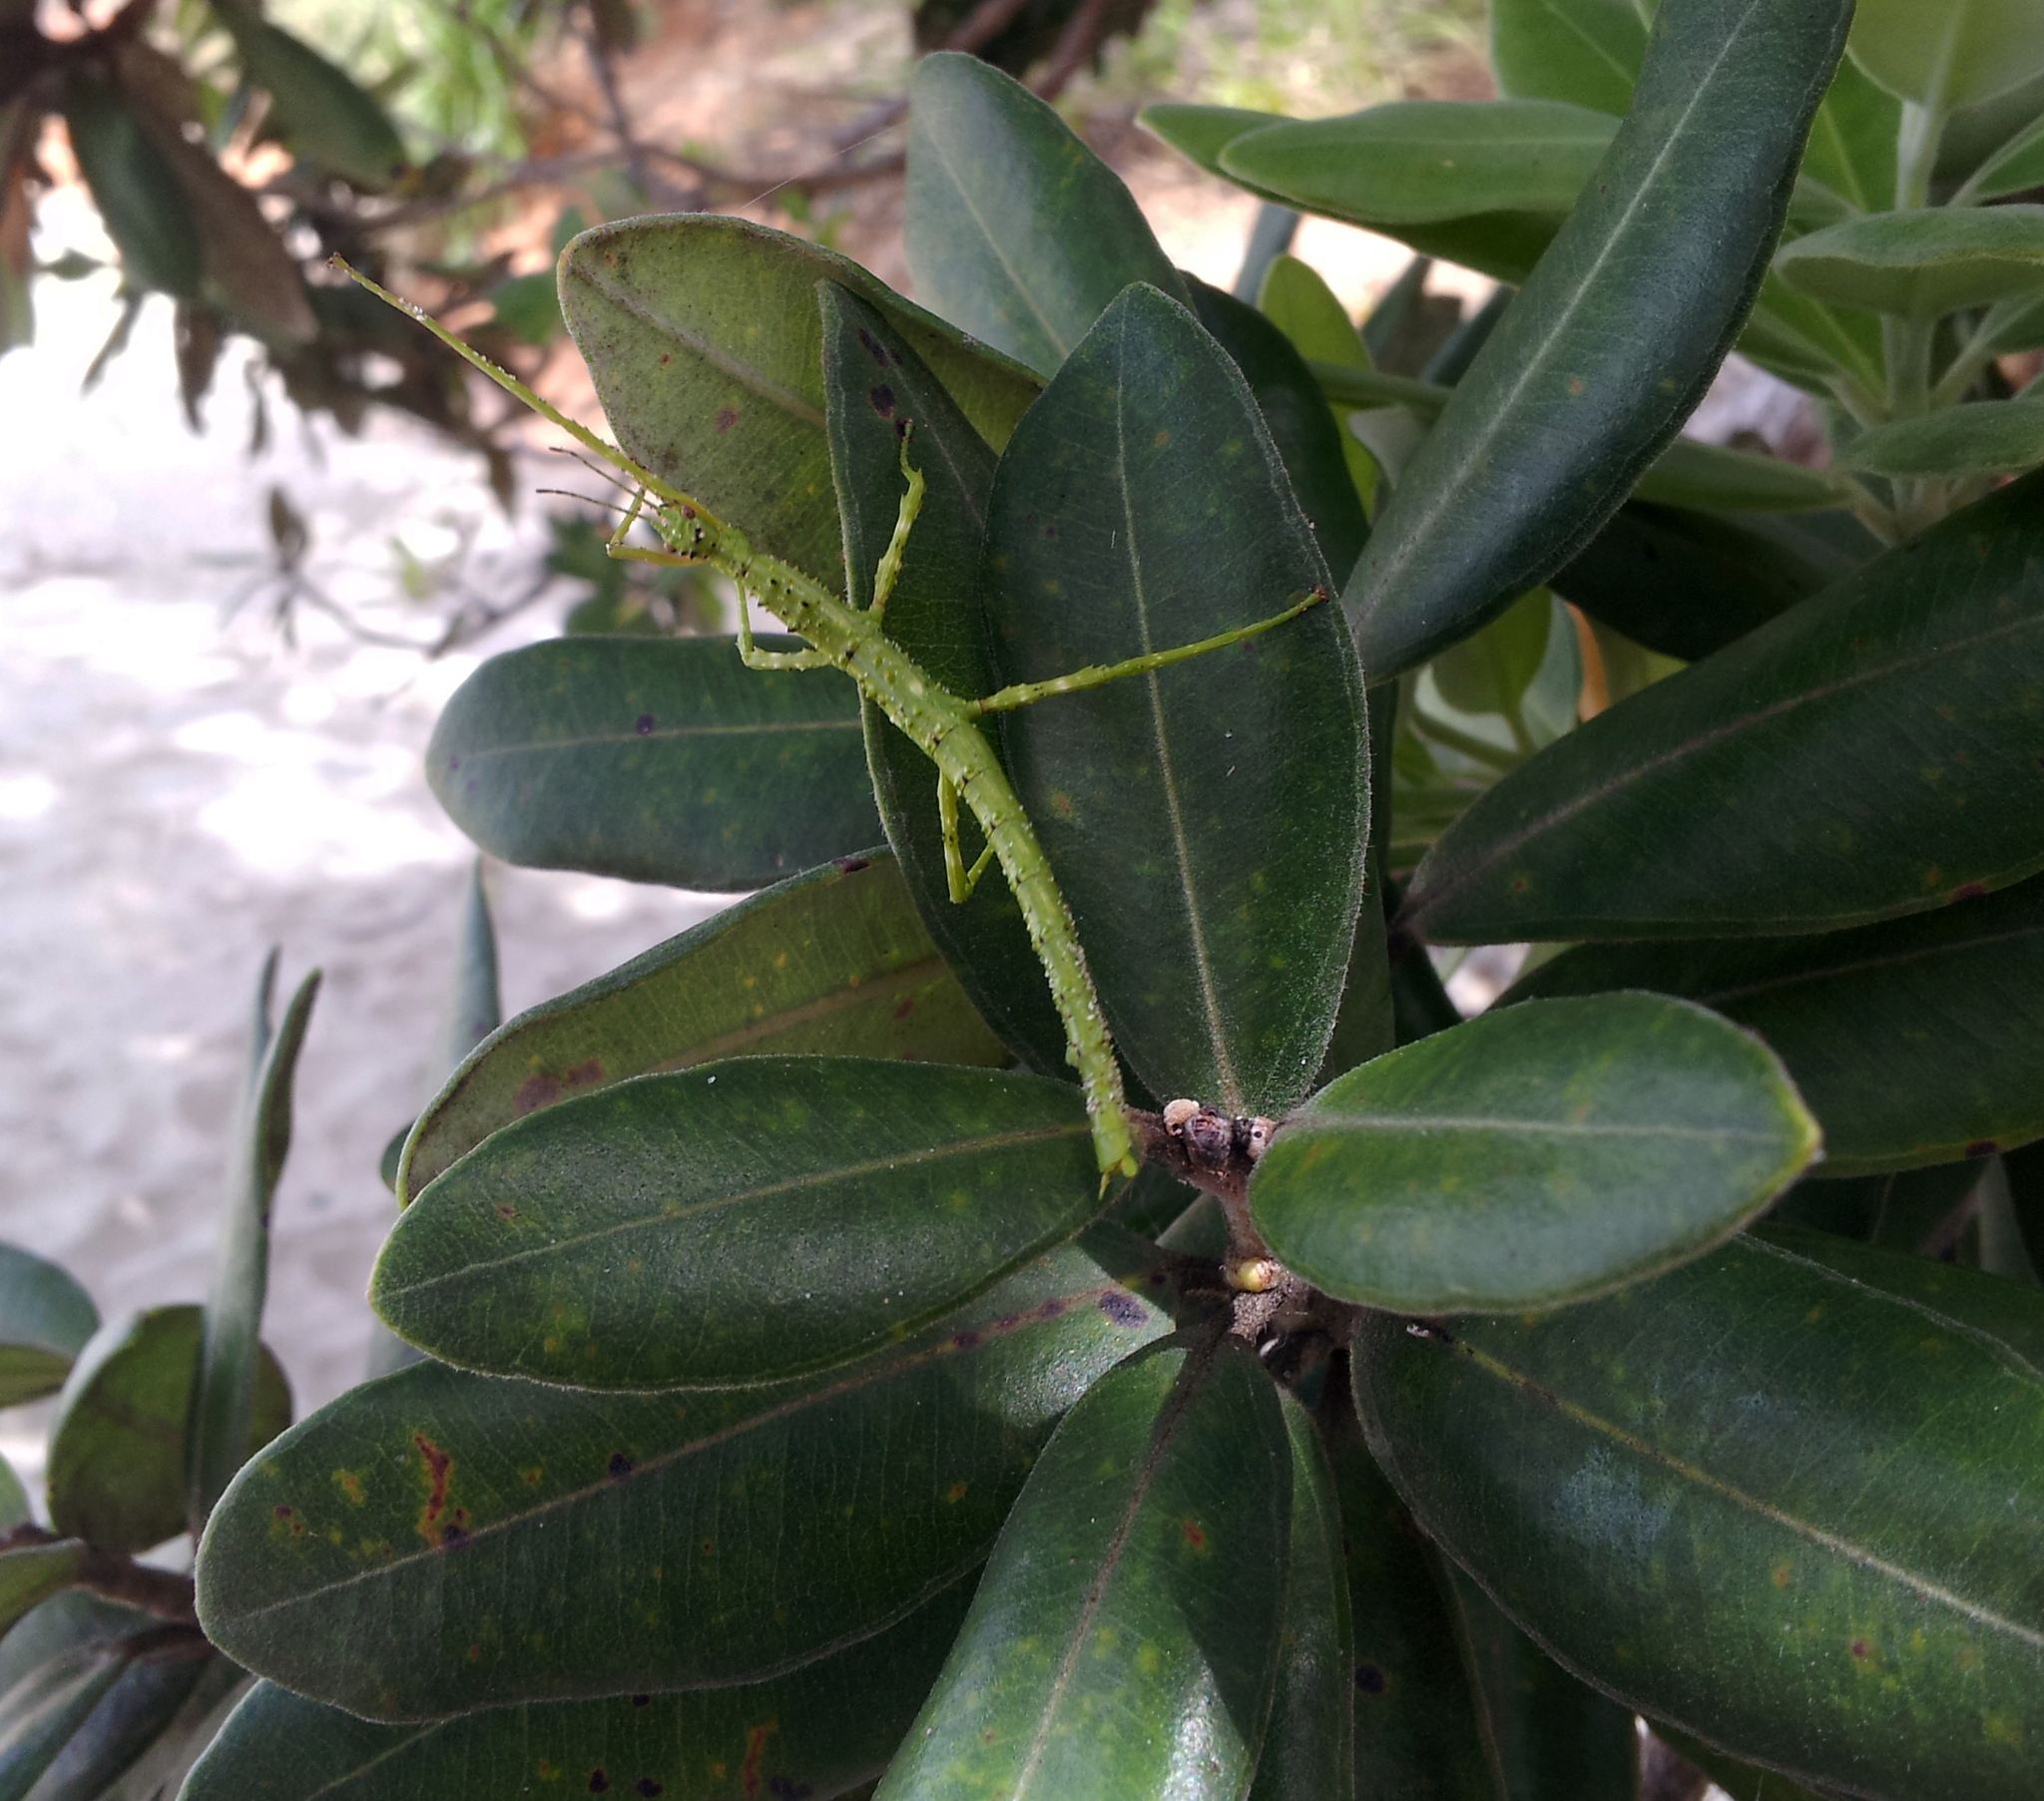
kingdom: Animalia
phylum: Arthropoda
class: Insecta
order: Phasmida
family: Phasmatidae
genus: Acanthoxyla
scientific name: Acanthoxyla prasina
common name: Black-spined stick insect
